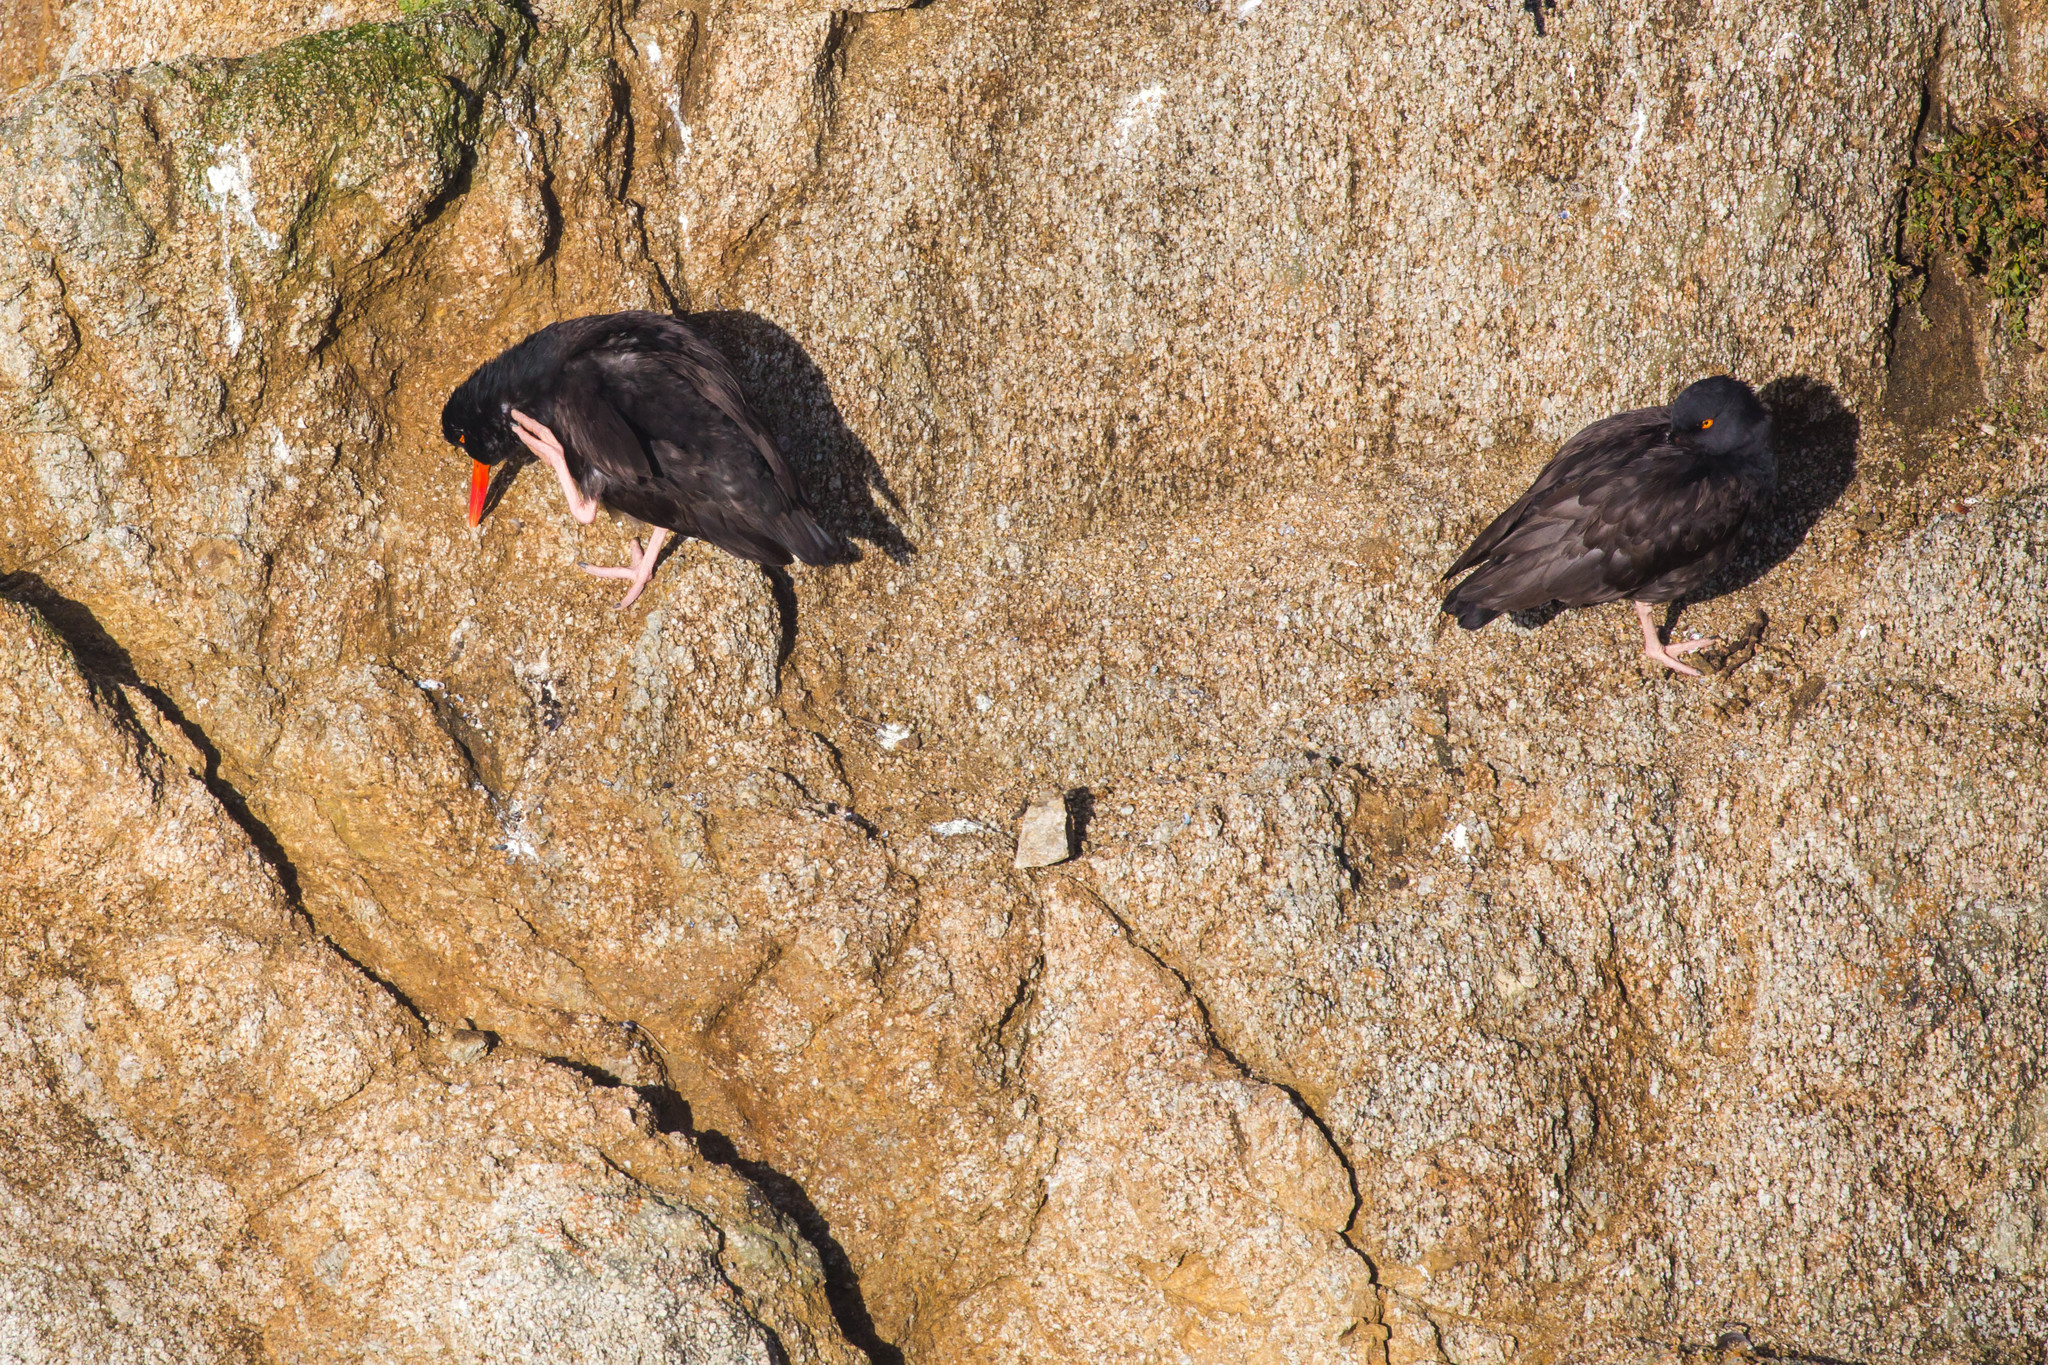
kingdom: Animalia
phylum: Chordata
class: Aves
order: Charadriiformes
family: Haematopodidae
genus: Haematopus
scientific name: Haematopus bachmani
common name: Black oystercatcher
